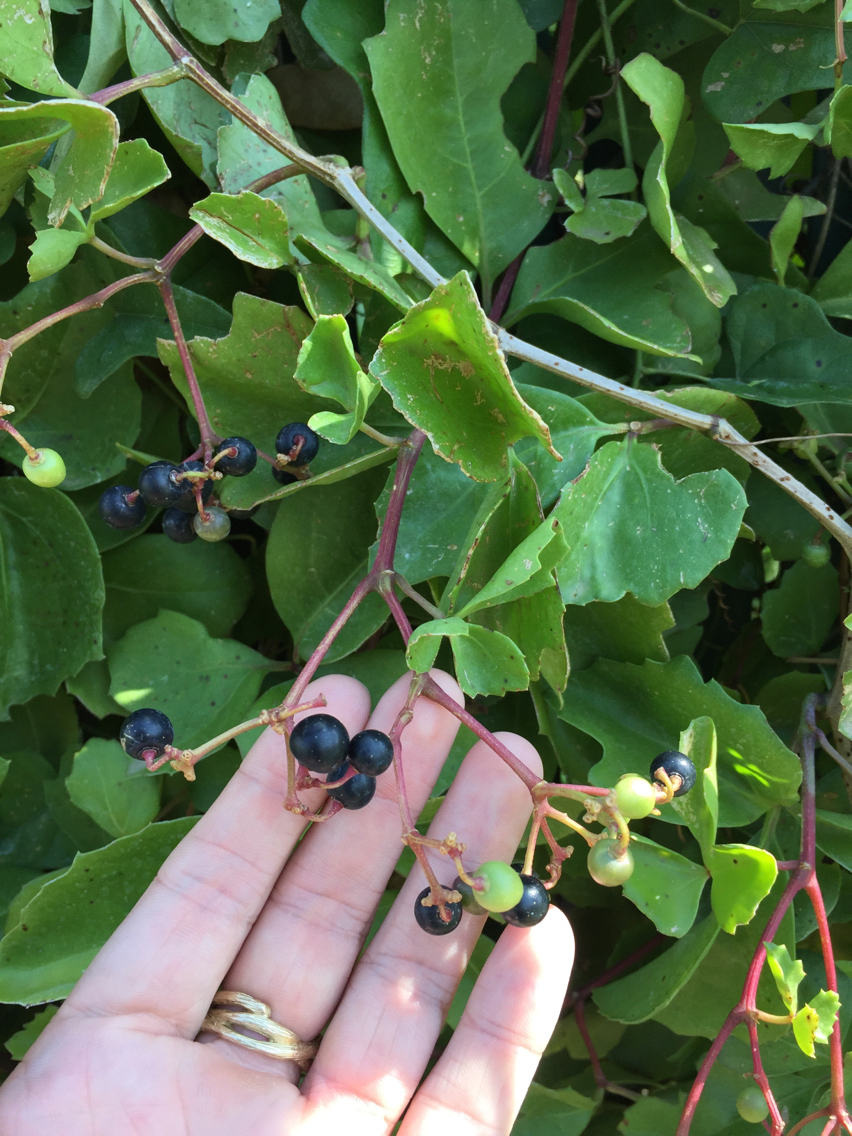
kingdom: Plantae
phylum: Tracheophyta
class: Magnoliopsida
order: Vitales
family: Vitaceae
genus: Cissus
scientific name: Cissus trifoliata
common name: Vine-sorrel
